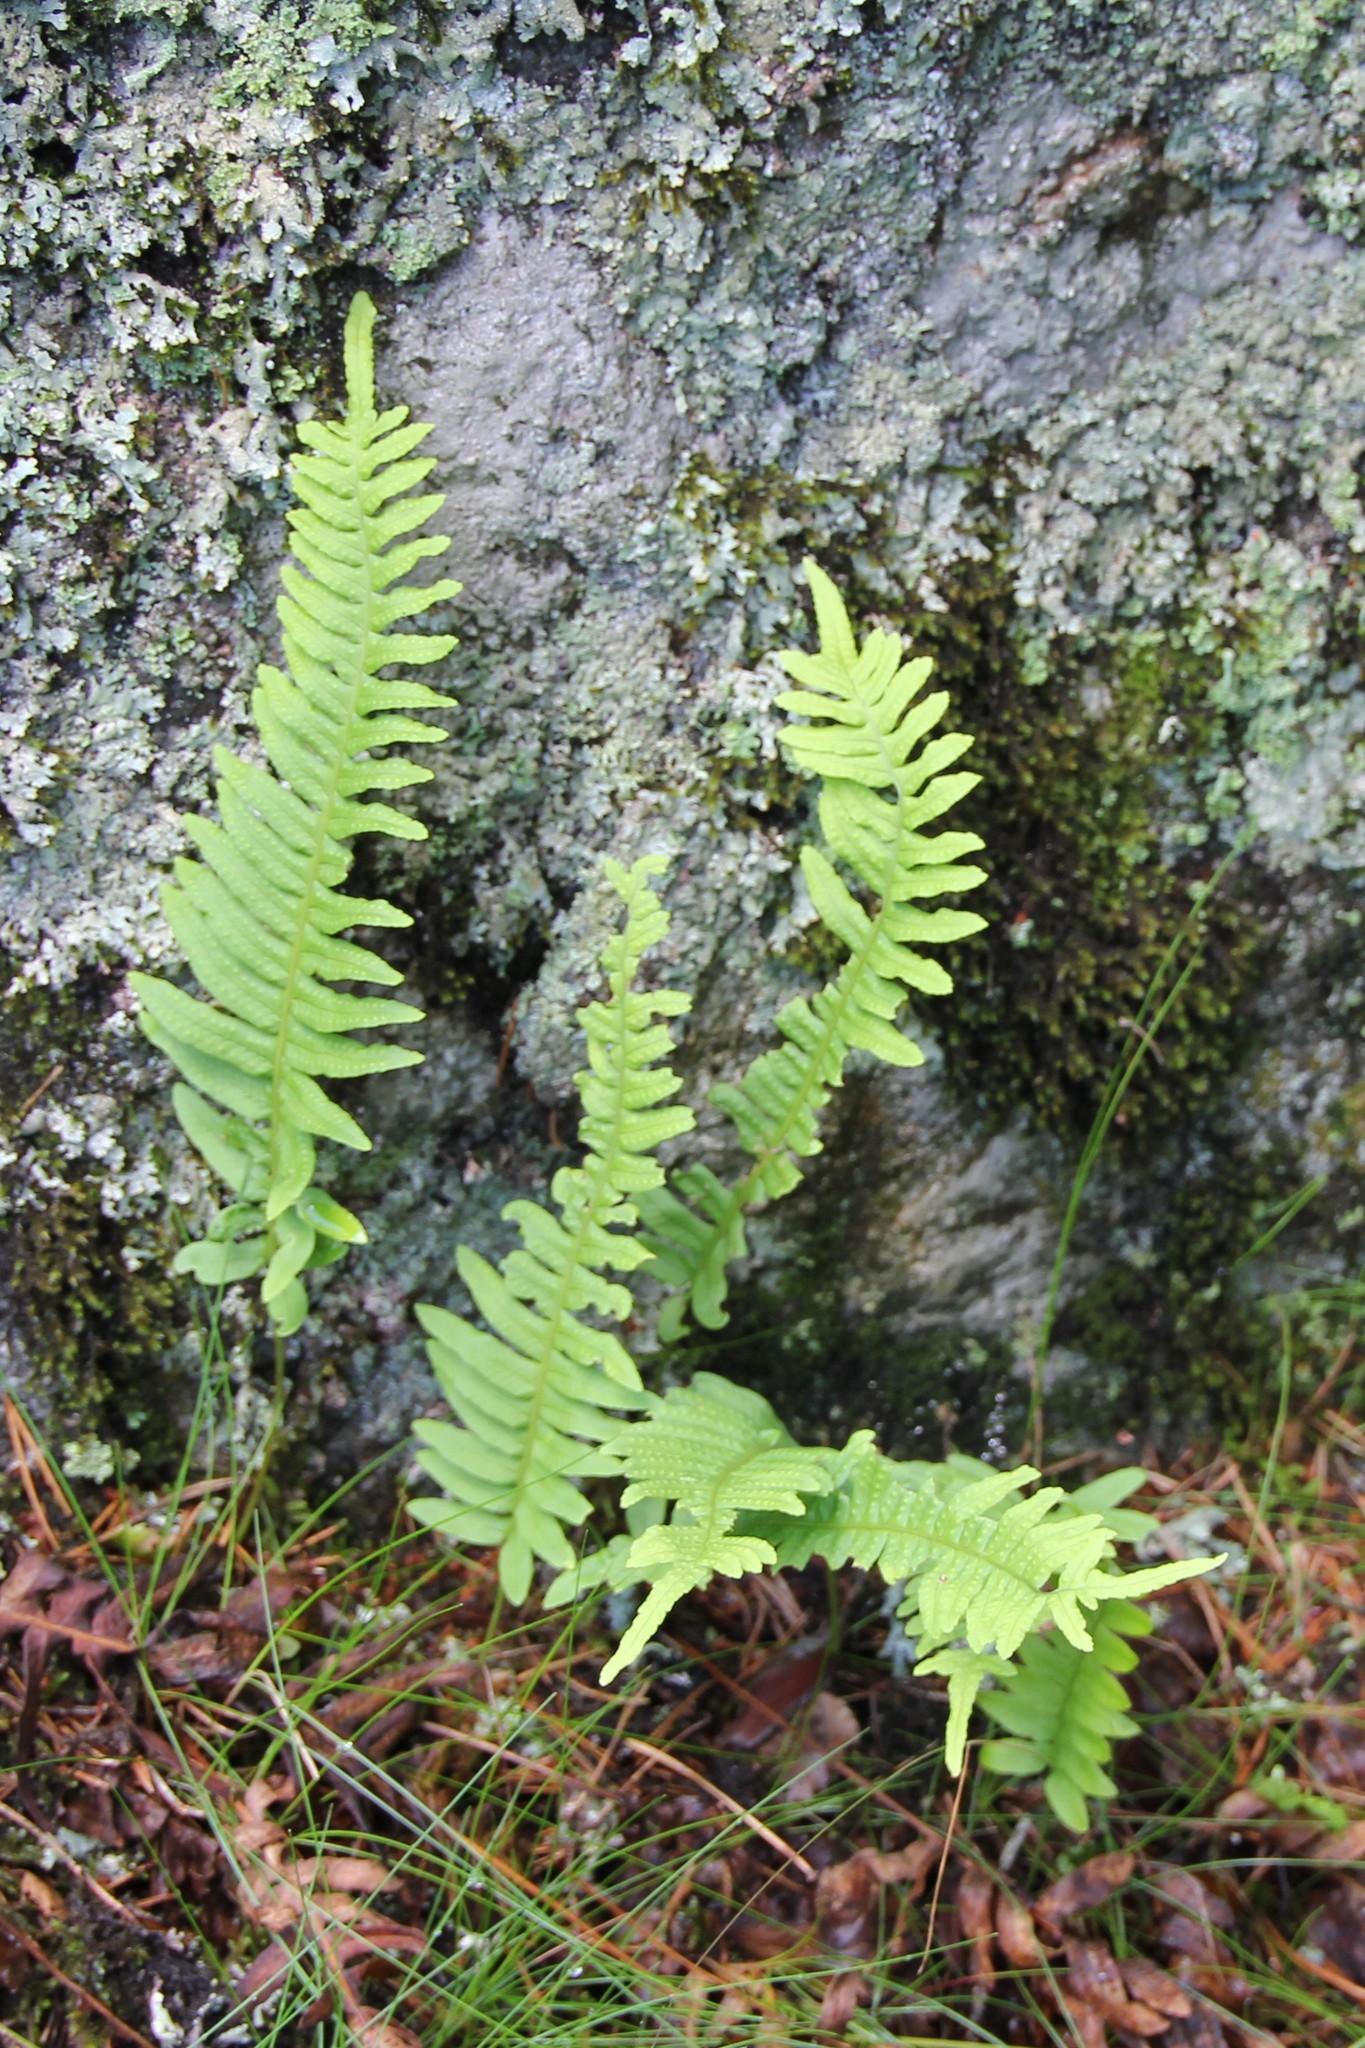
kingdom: Plantae
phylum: Tracheophyta
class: Polypodiopsida
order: Polypodiales
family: Polypodiaceae
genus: Polypodium
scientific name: Polypodium vulgare
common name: Common polypody
